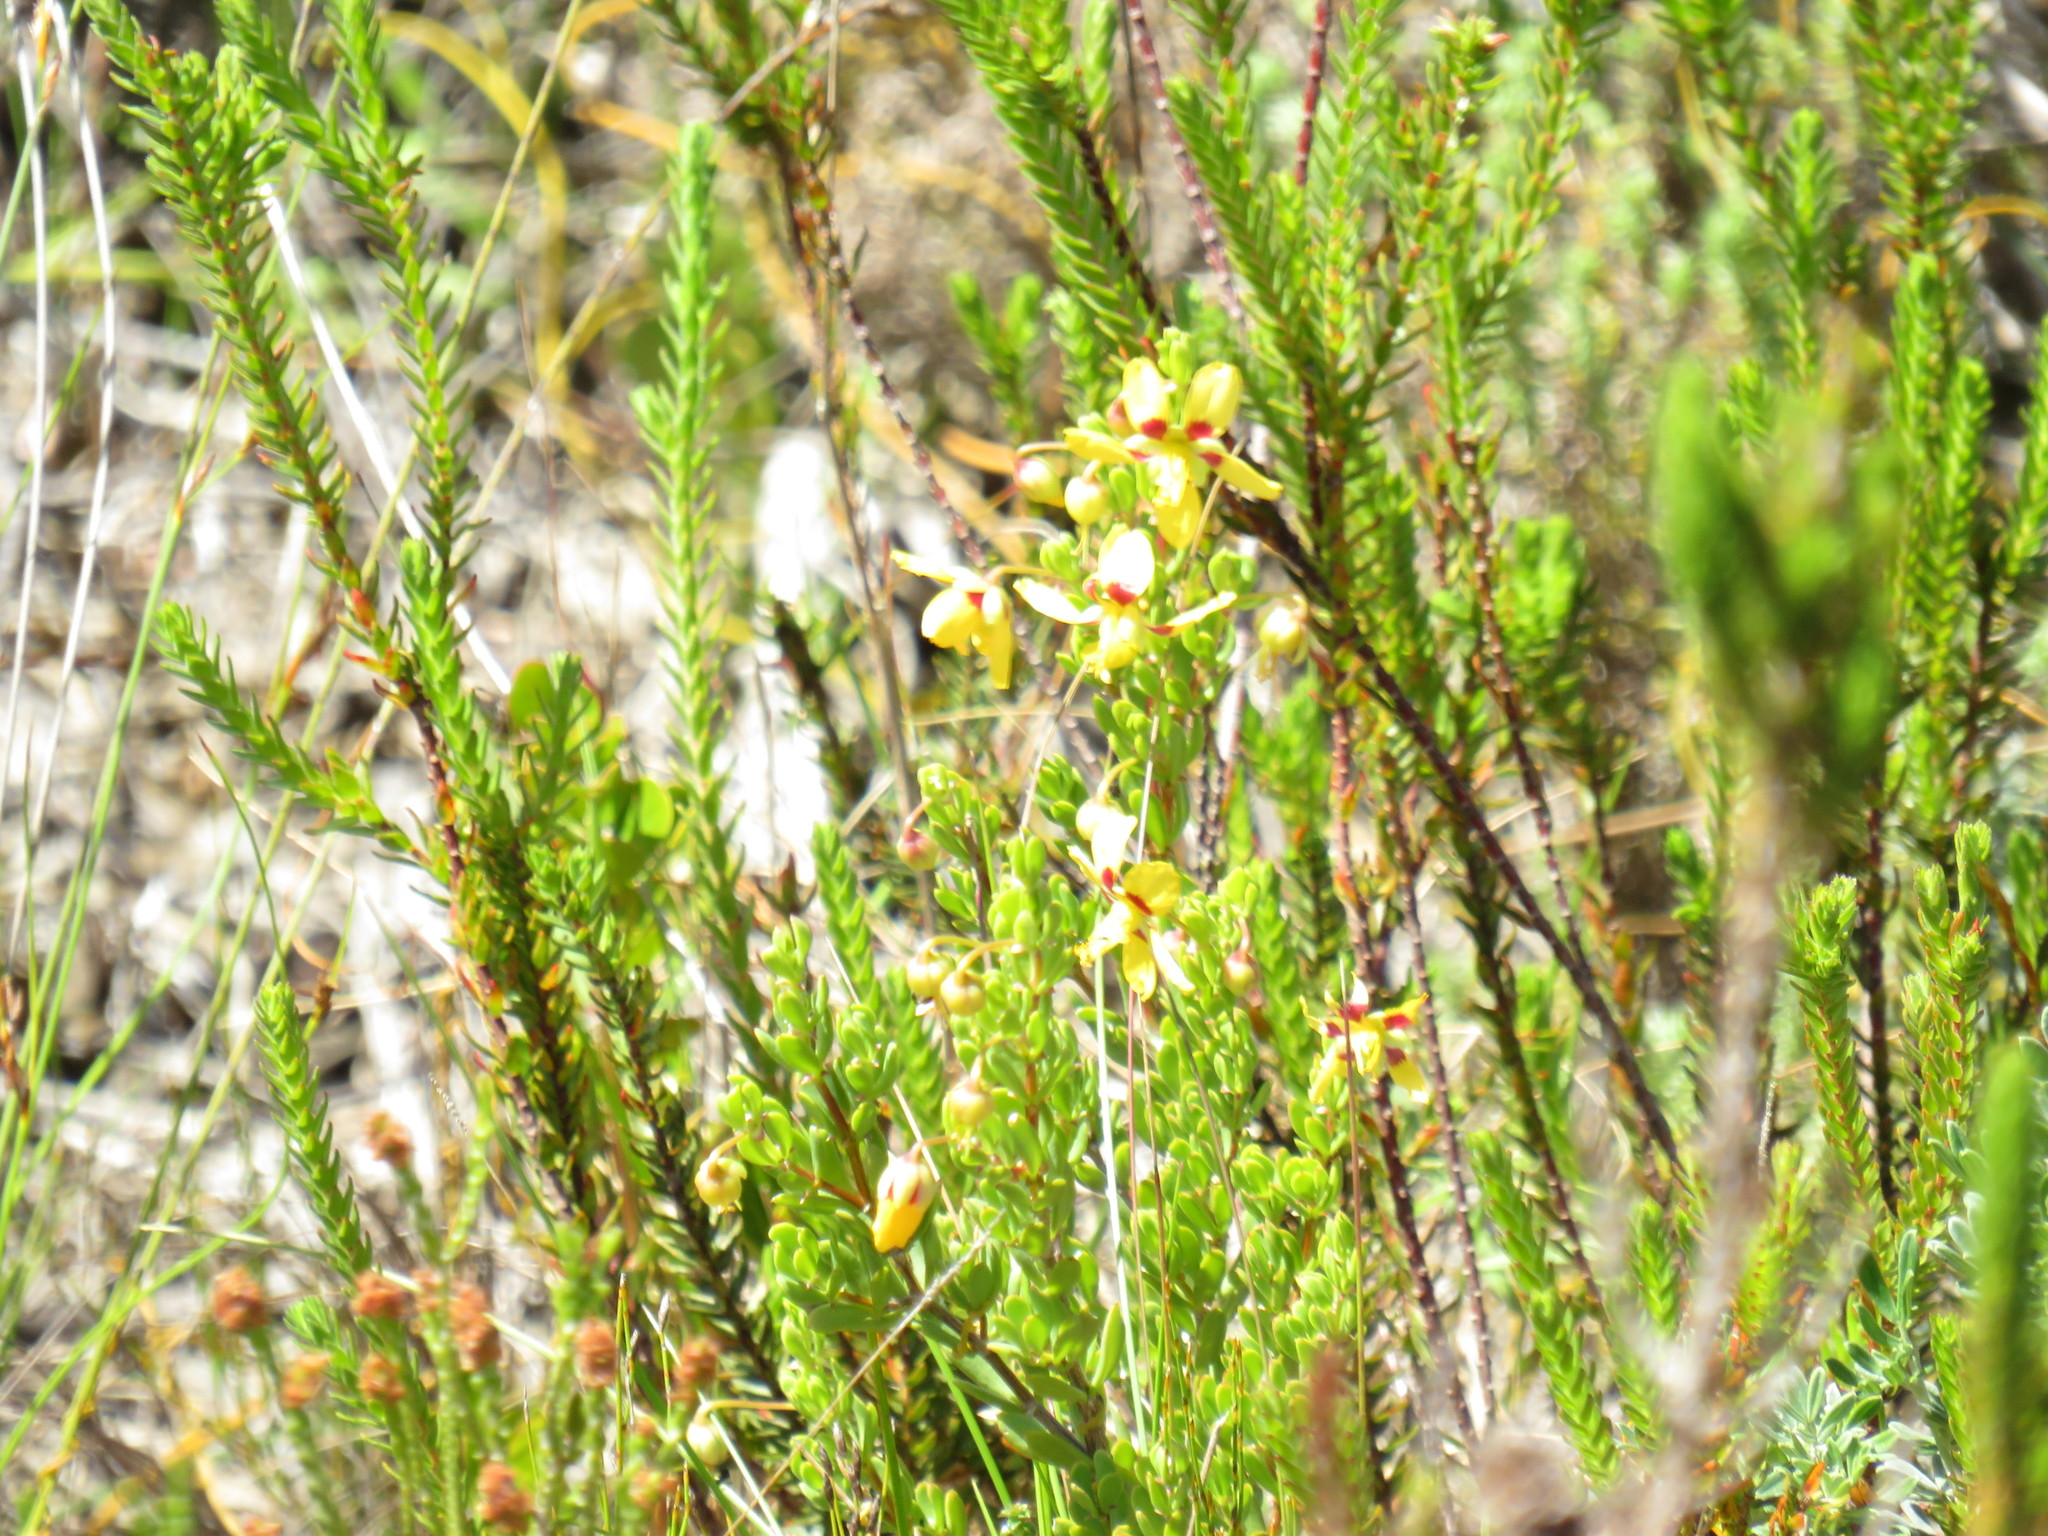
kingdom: Plantae
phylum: Tracheophyta
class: Magnoliopsida
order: Zygophyllales
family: Zygophyllaceae
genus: Roepera
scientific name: Roepera flexuosa
